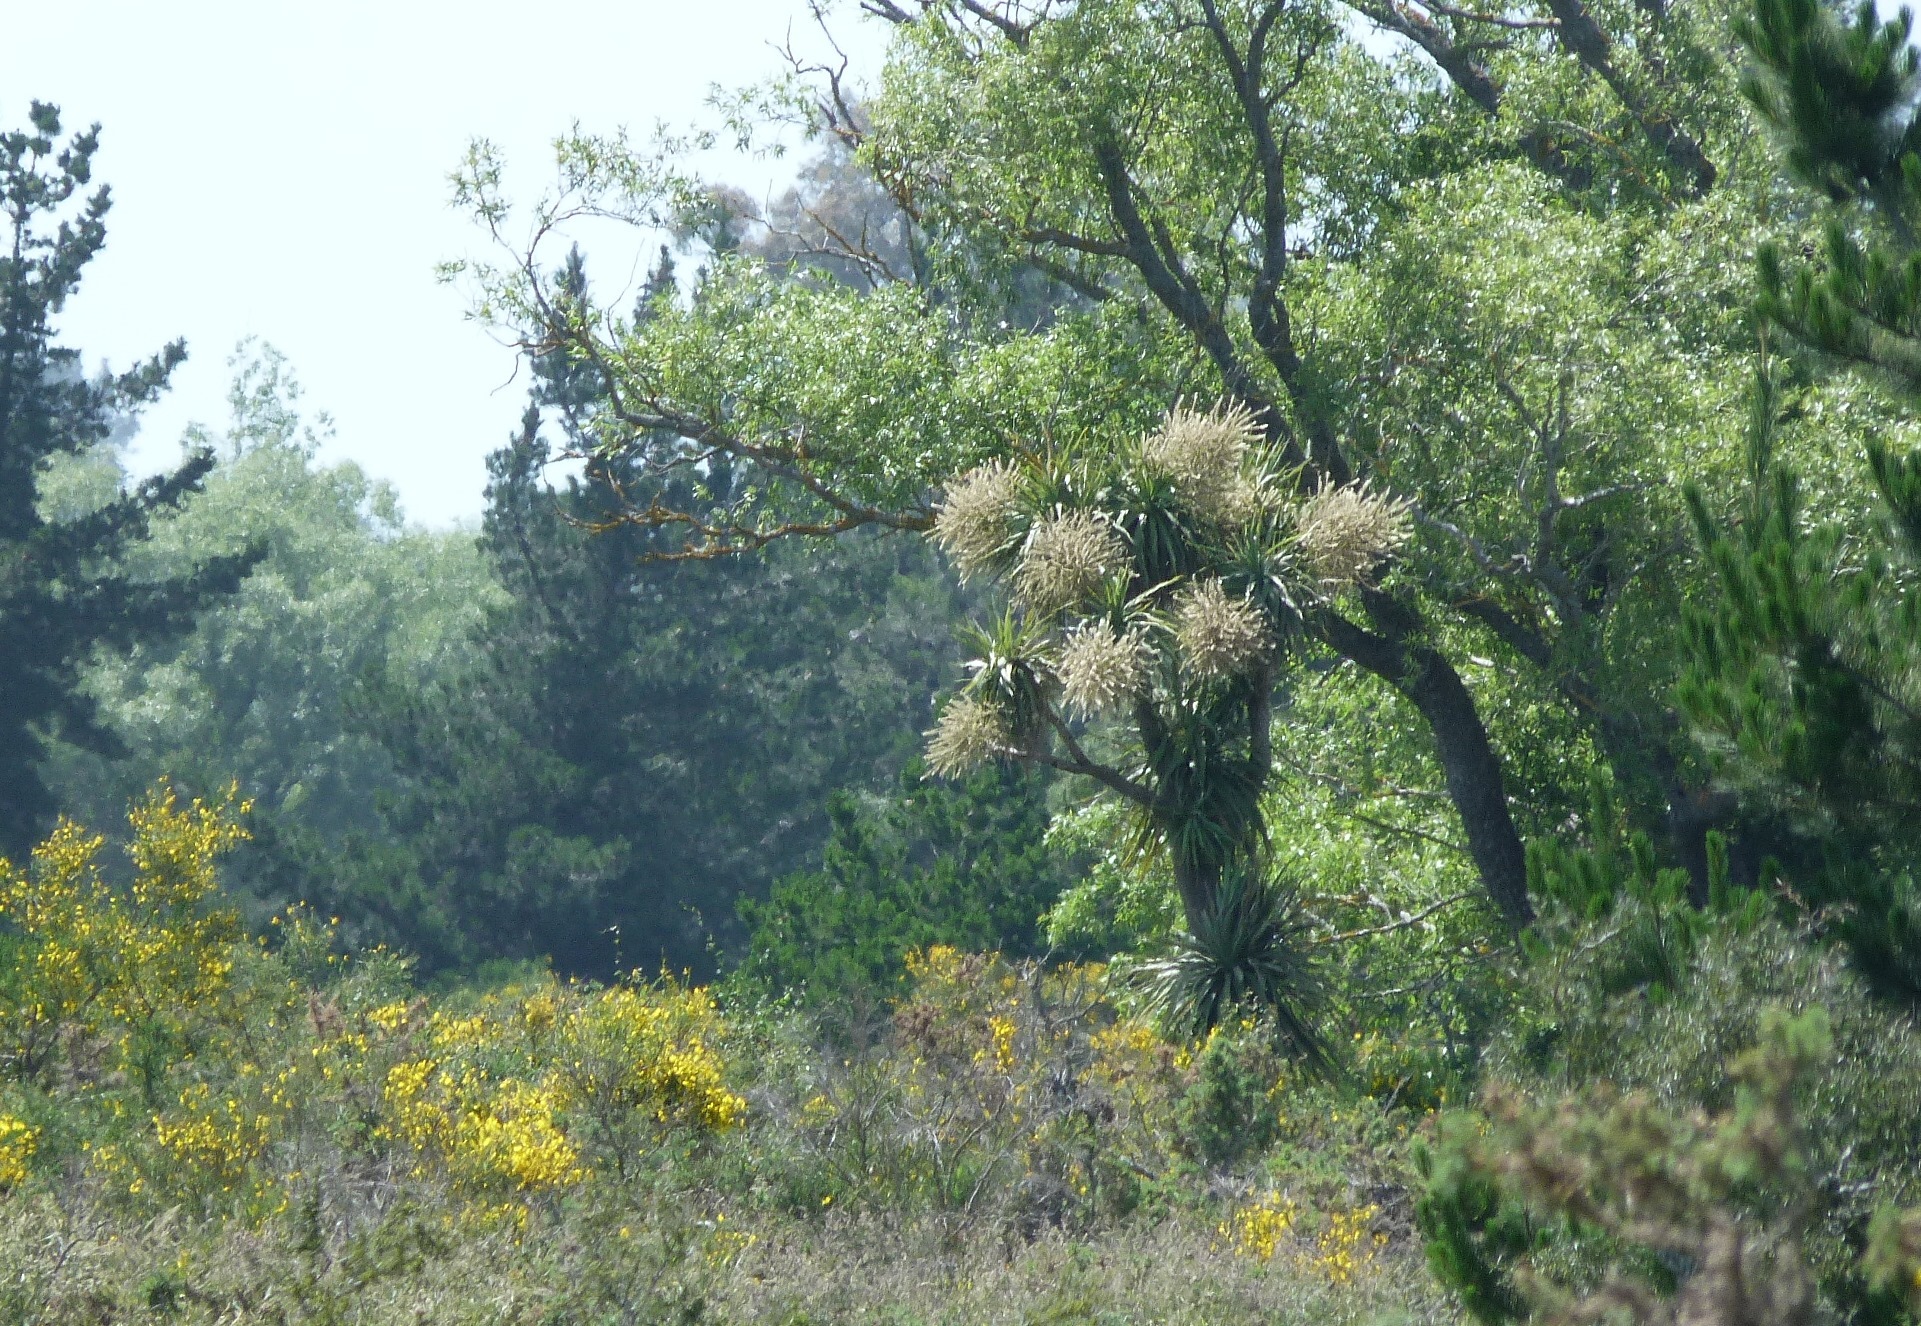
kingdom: Plantae
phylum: Tracheophyta
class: Liliopsida
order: Asparagales
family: Asparagaceae
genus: Cordyline
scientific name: Cordyline australis
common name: Cabbage-palm
